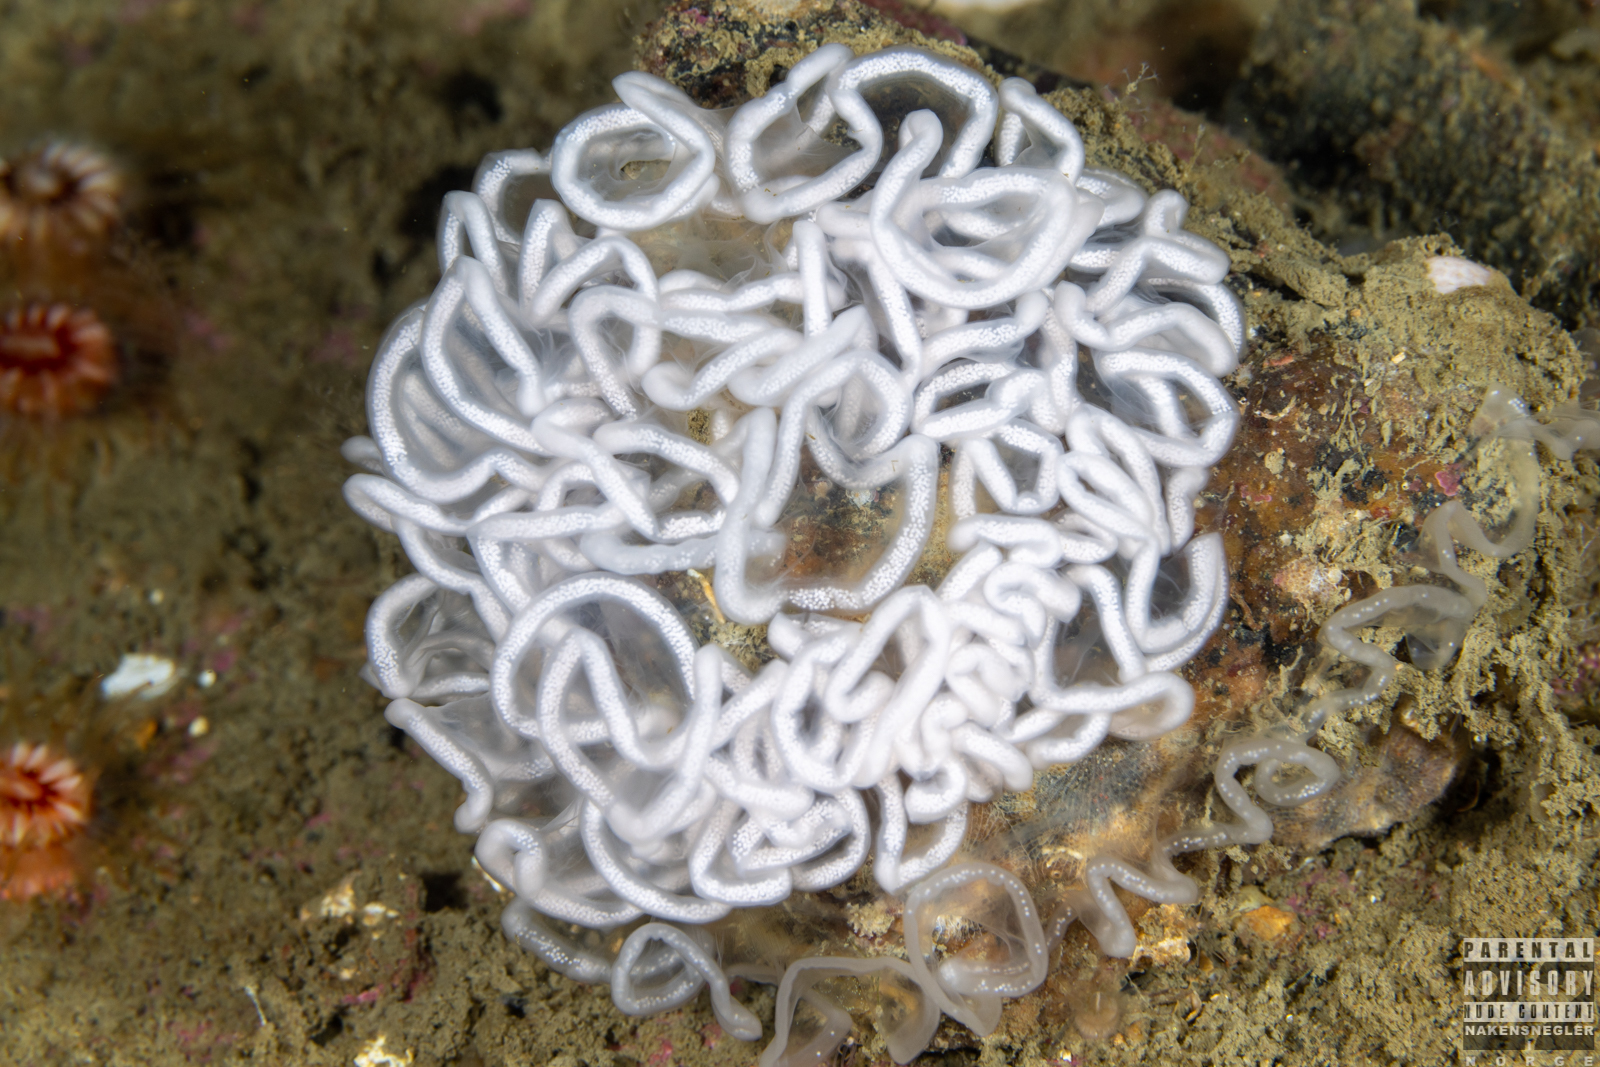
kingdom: Animalia
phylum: Mollusca
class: Gastropoda
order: Nudibranchia
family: Tritoniidae
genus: Tritonia
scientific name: Tritonia hombergii
